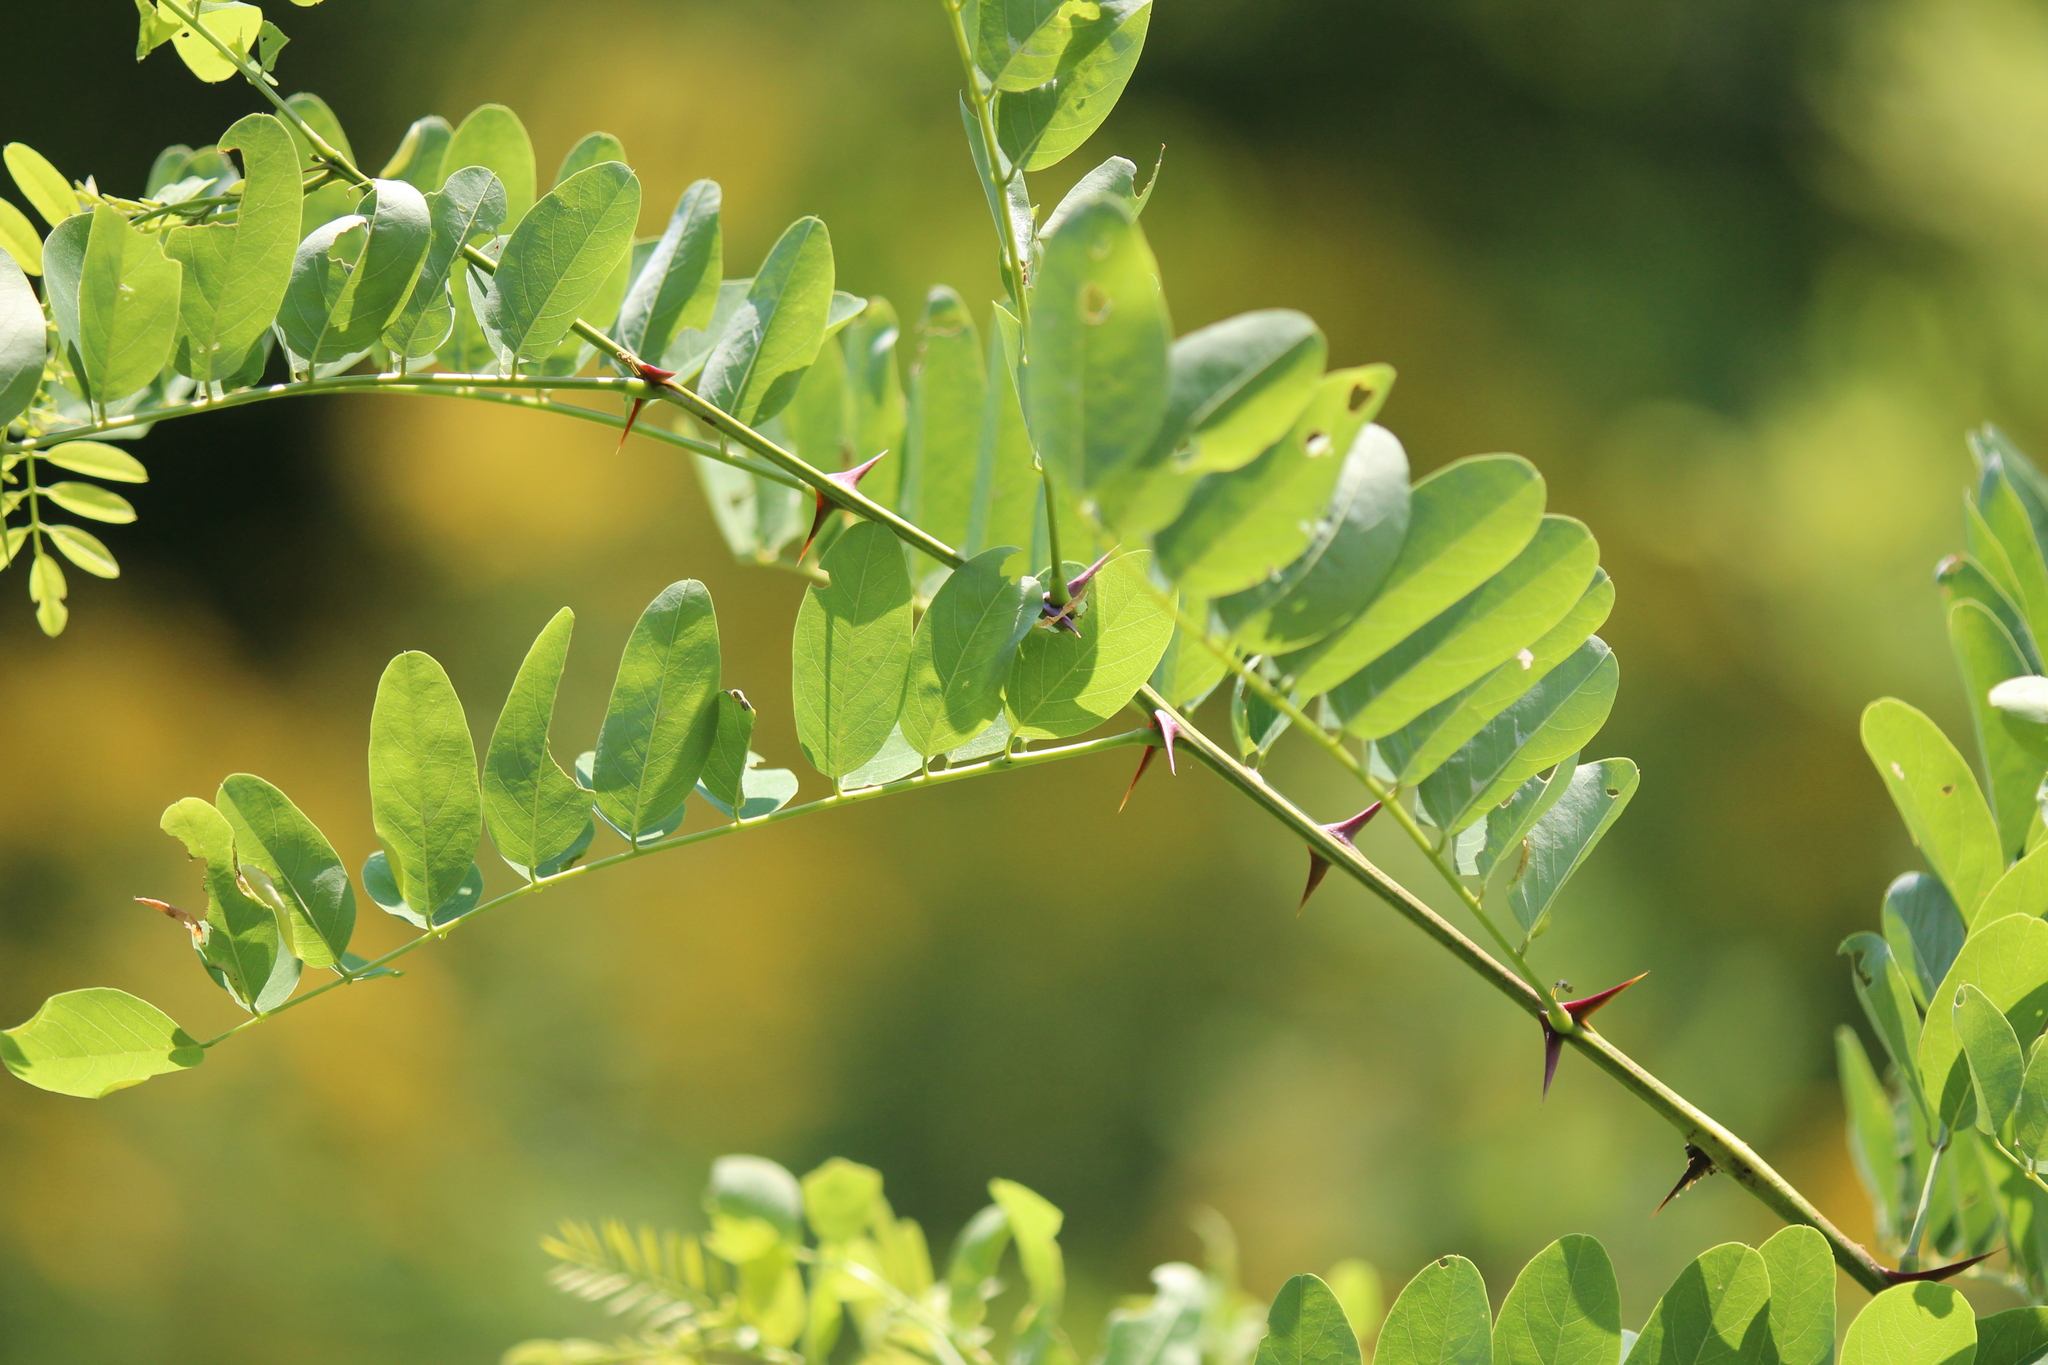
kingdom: Plantae
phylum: Tracheophyta
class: Magnoliopsida
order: Fabales
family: Fabaceae
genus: Robinia
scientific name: Robinia pseudoacacia
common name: Black locust
